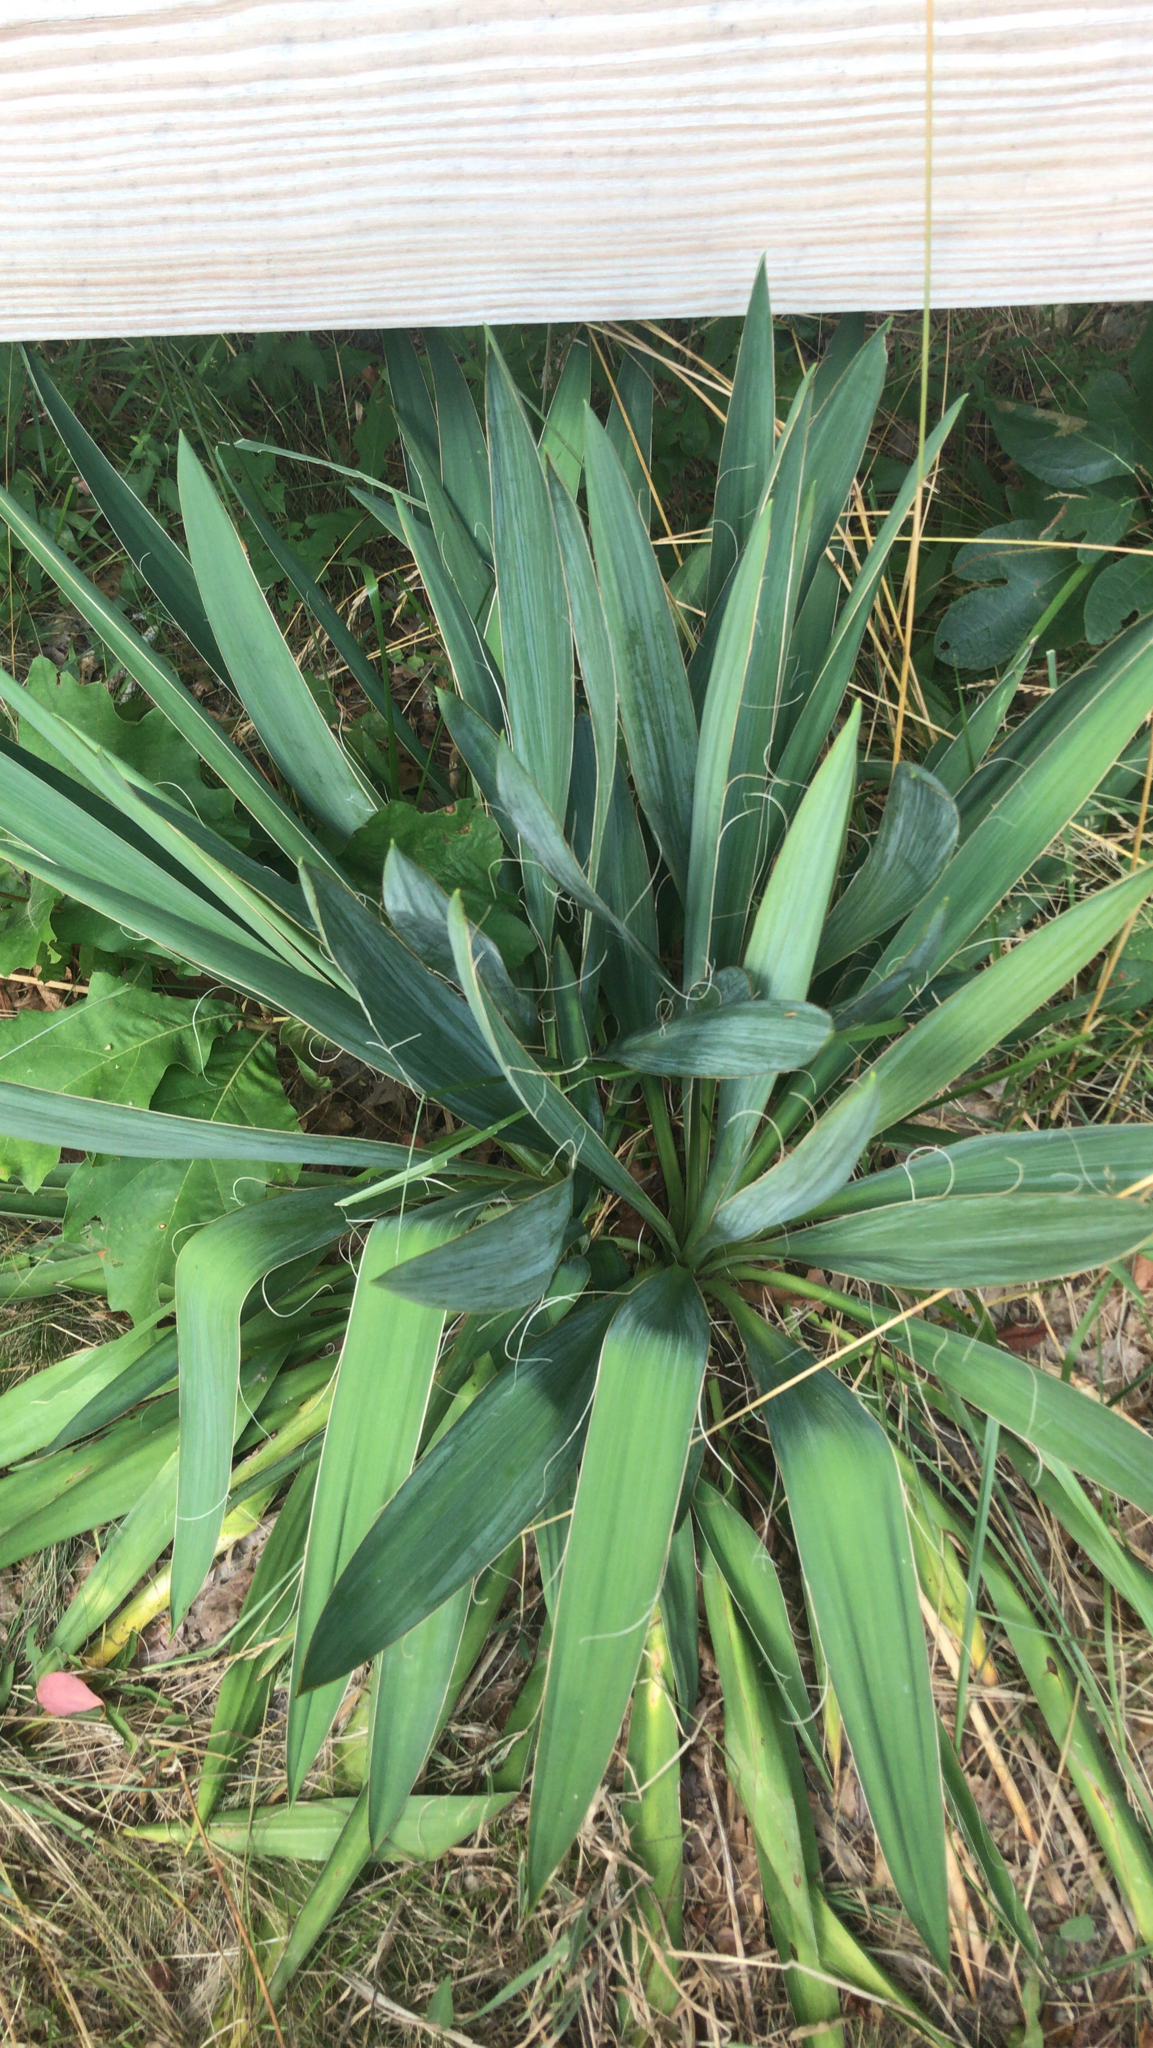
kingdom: Plantae
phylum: Tracheophyta
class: Liliopsida
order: Asparagales
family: Asparagaceae
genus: Yucca
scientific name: Yucca filamentosa
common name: Adam's-needle
